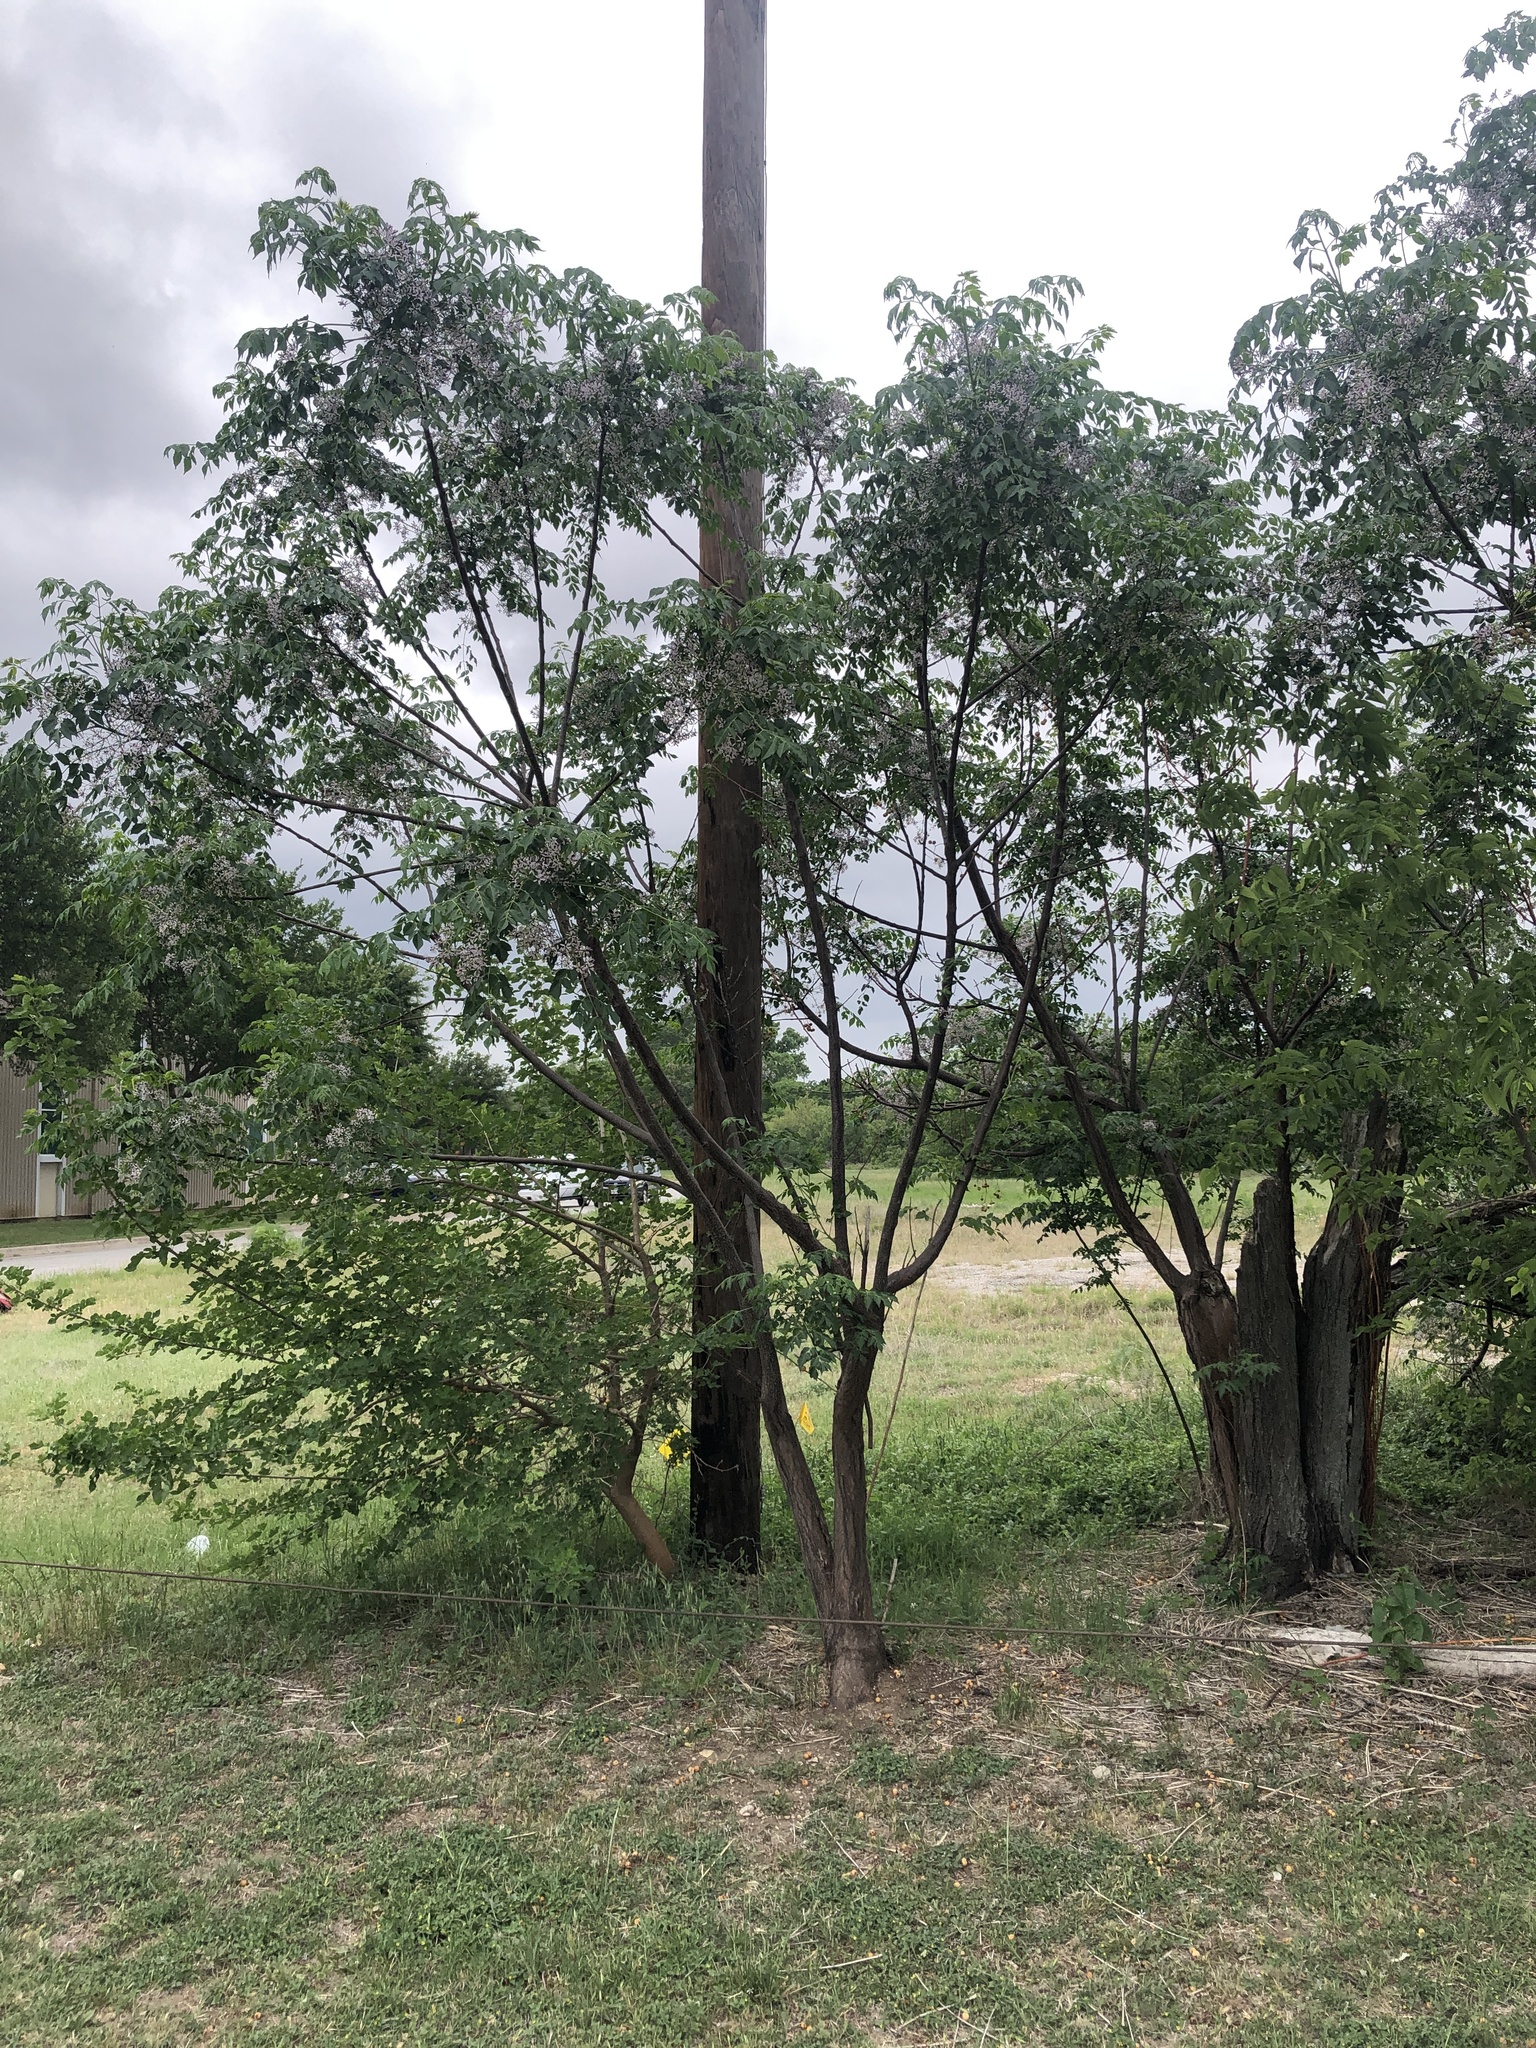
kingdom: Plantae
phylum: Tracheophyta
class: Magnoliopsida
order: Sapindales
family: Meliaceae
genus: Melia
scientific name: Melia azedarach
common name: Chinaberrytree
